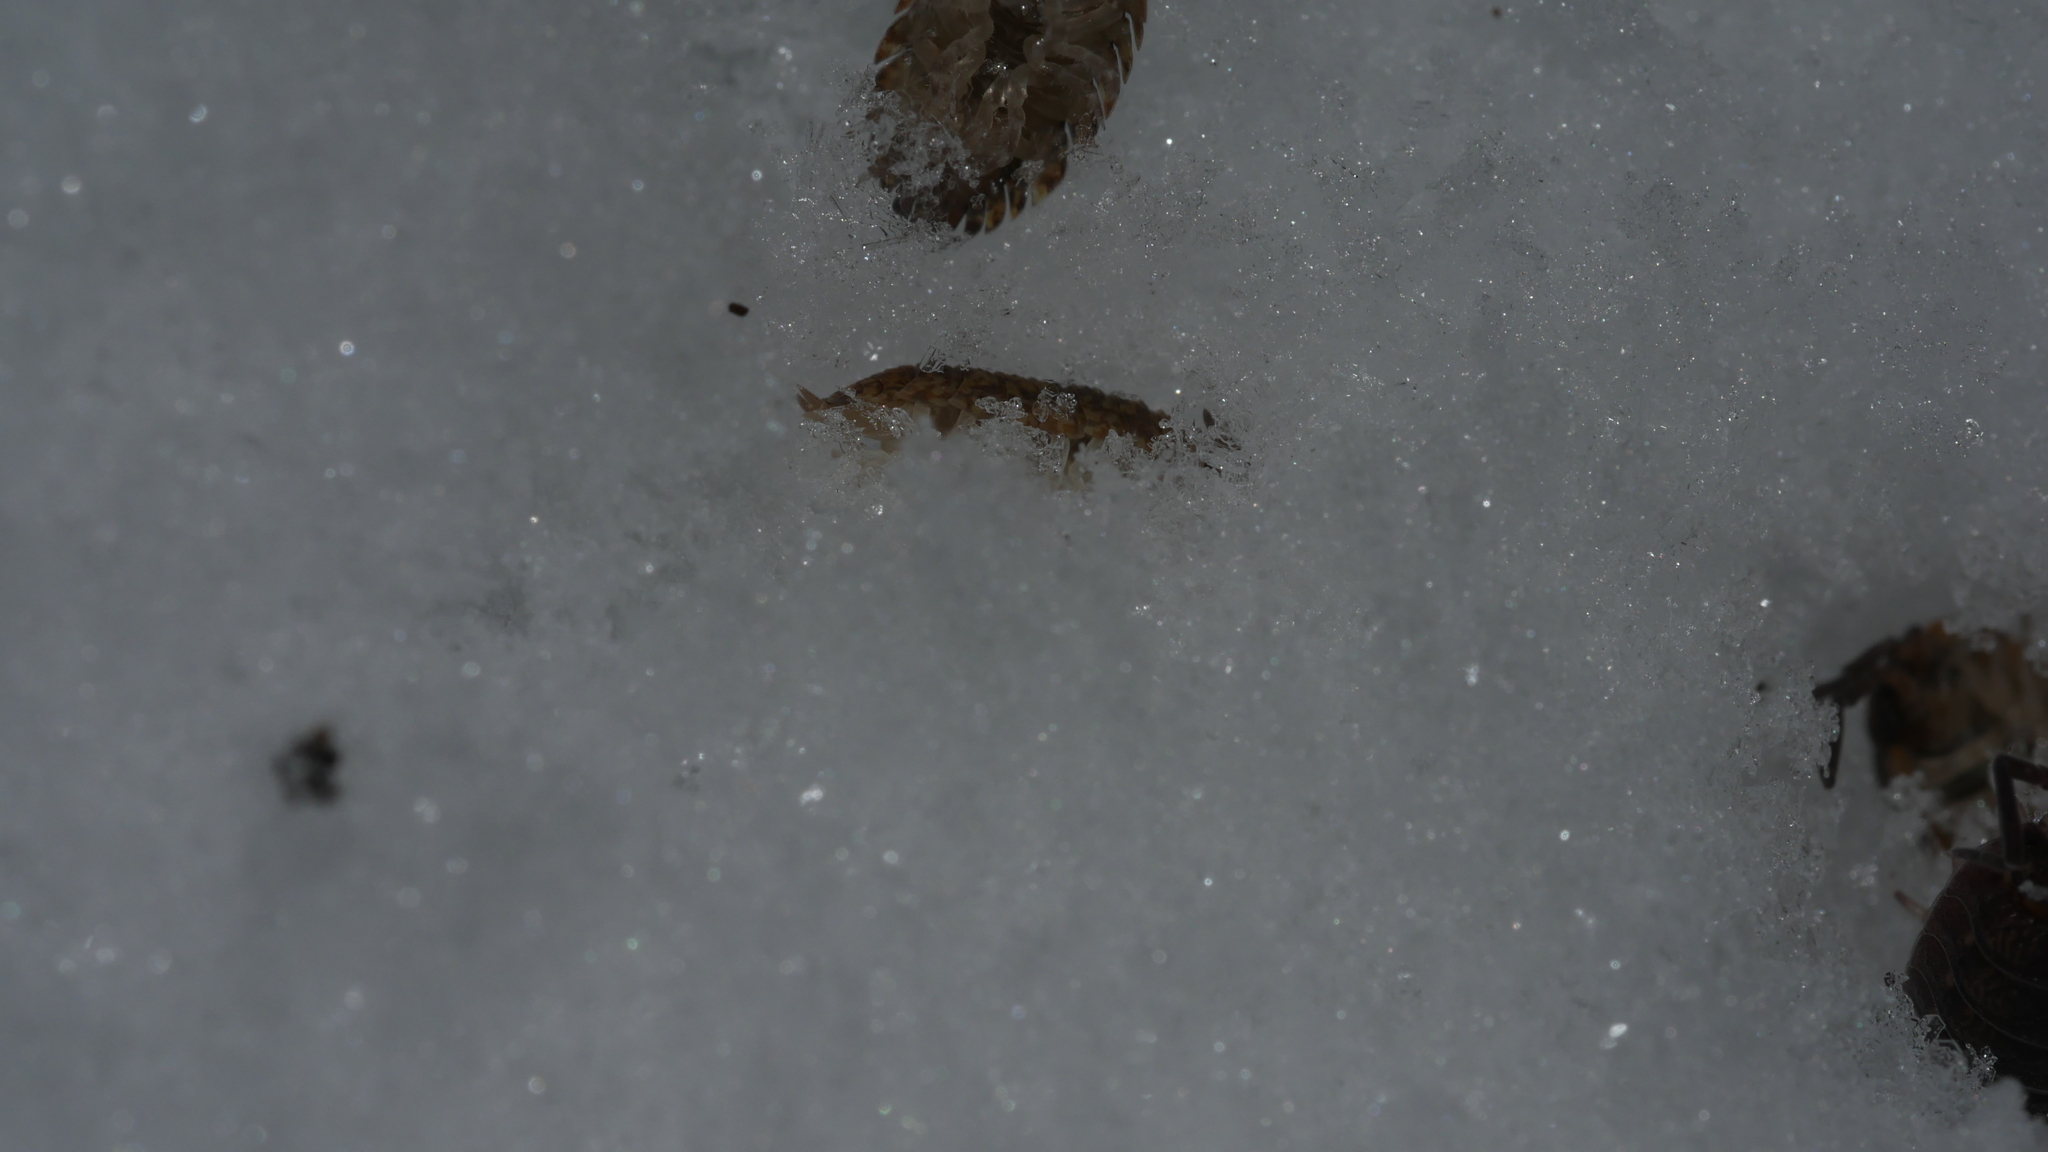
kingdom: Animalia
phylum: Arthropoda
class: Malacostraca
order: Isopoda
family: Porcellionidae
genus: Porcellio
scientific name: Porcellio scaber
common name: Common rough woodlouse
